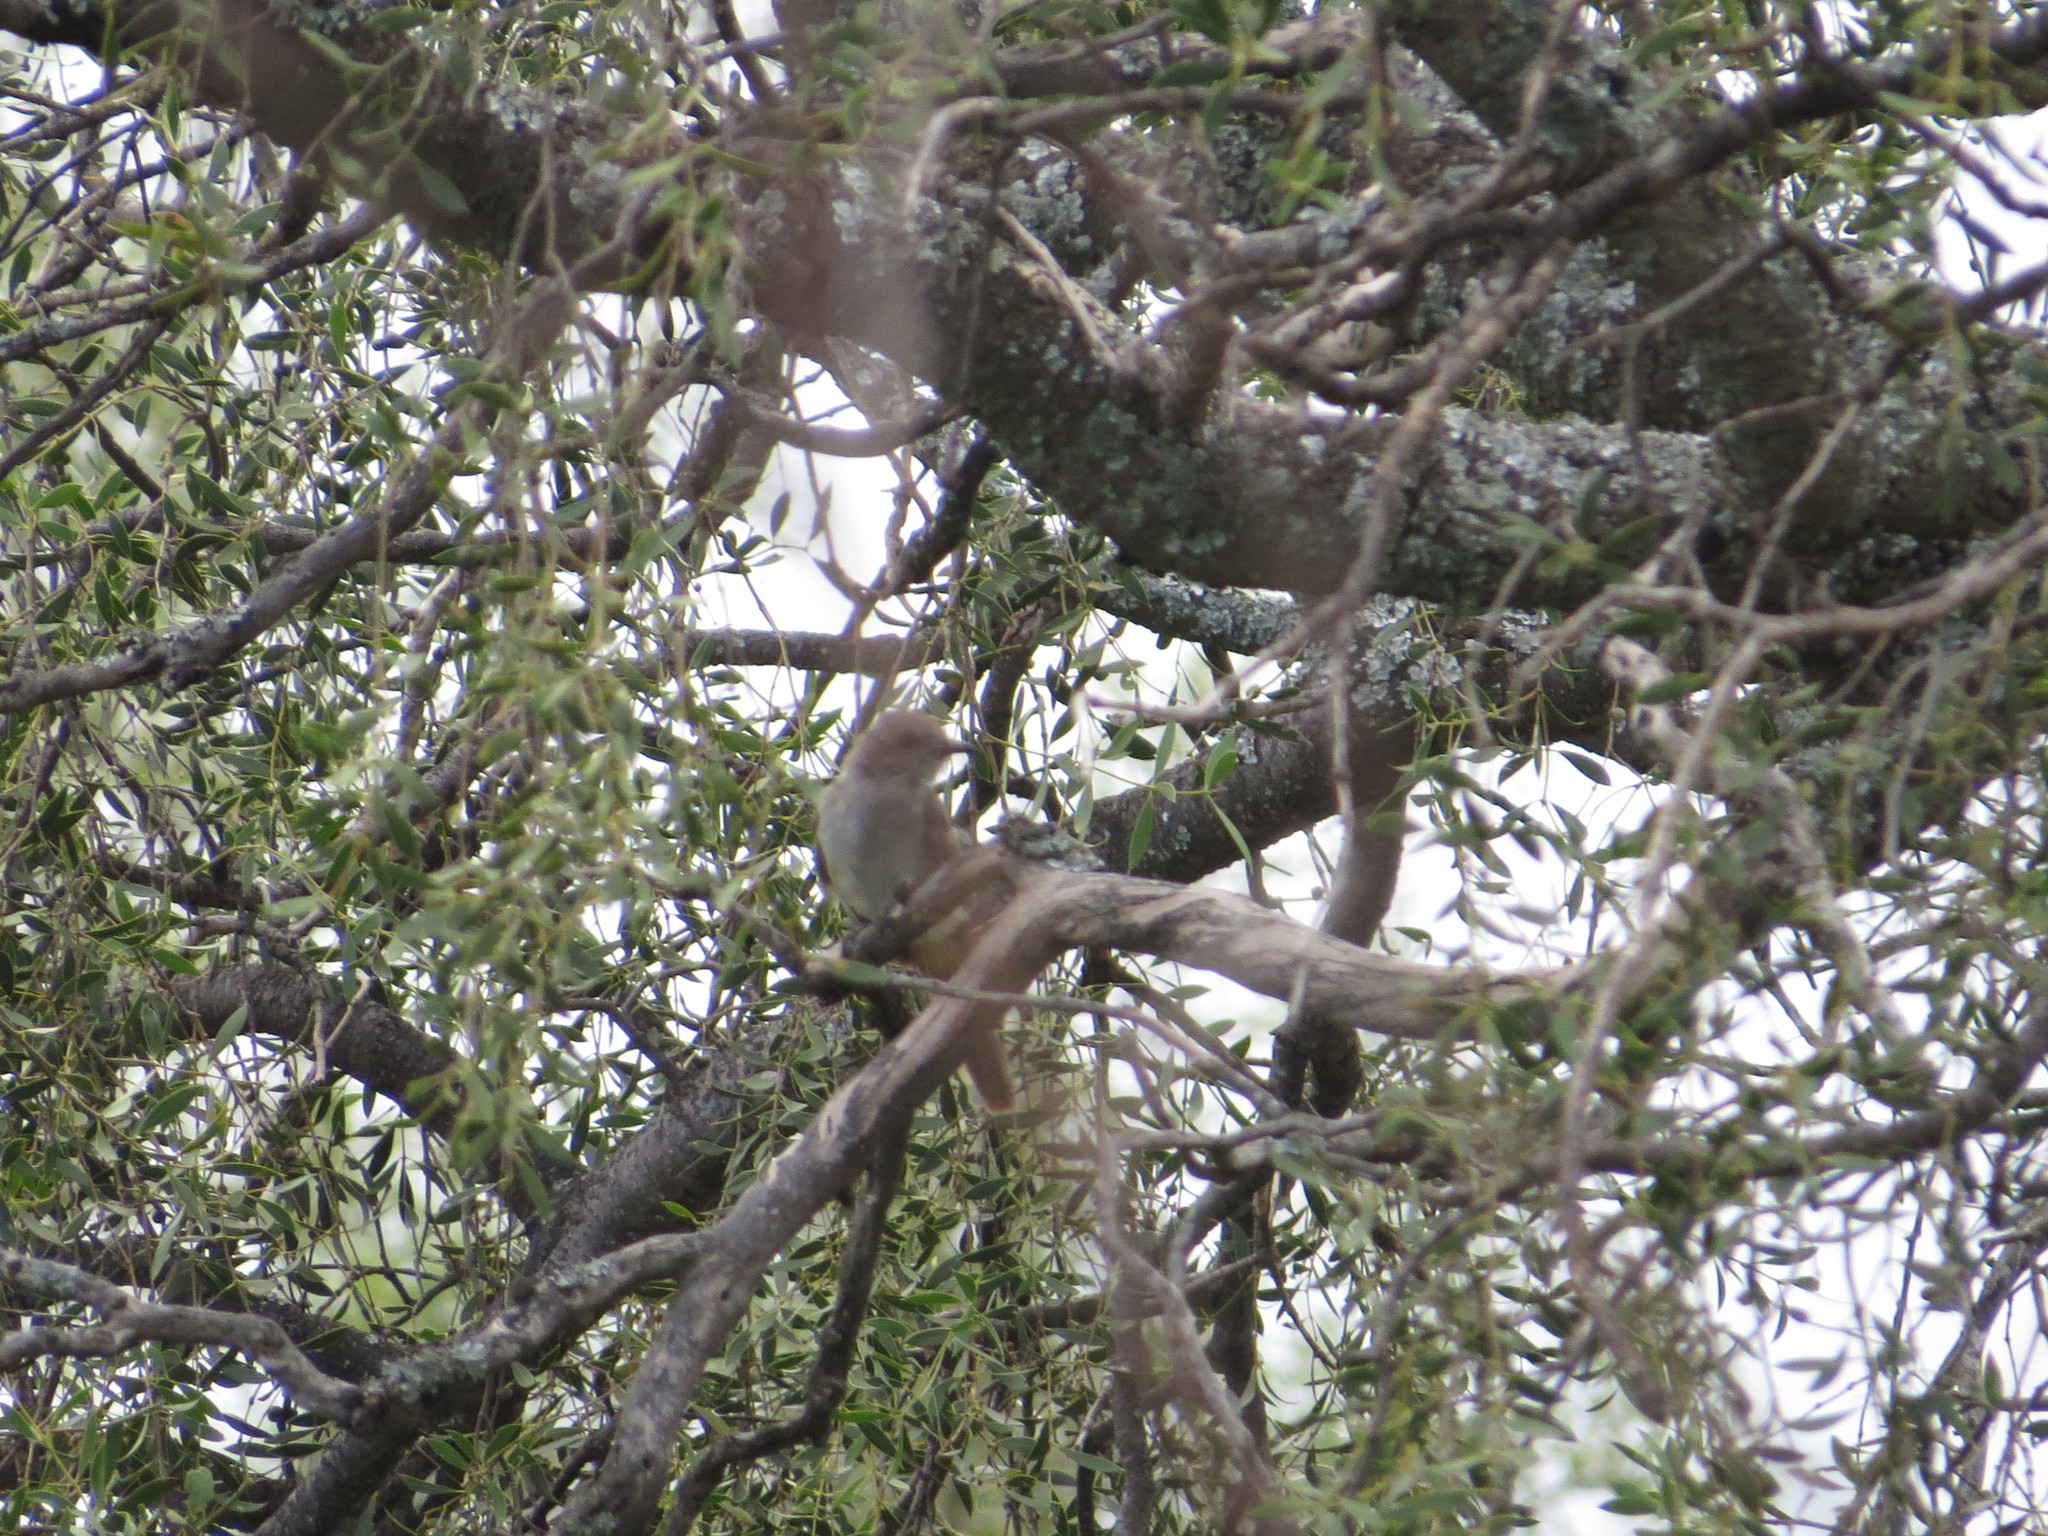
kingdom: Animalia
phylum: Chordata
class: Aves
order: Cuculiformes
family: Cuculidae
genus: Coccyzus
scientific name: Coccyzus cinereus
